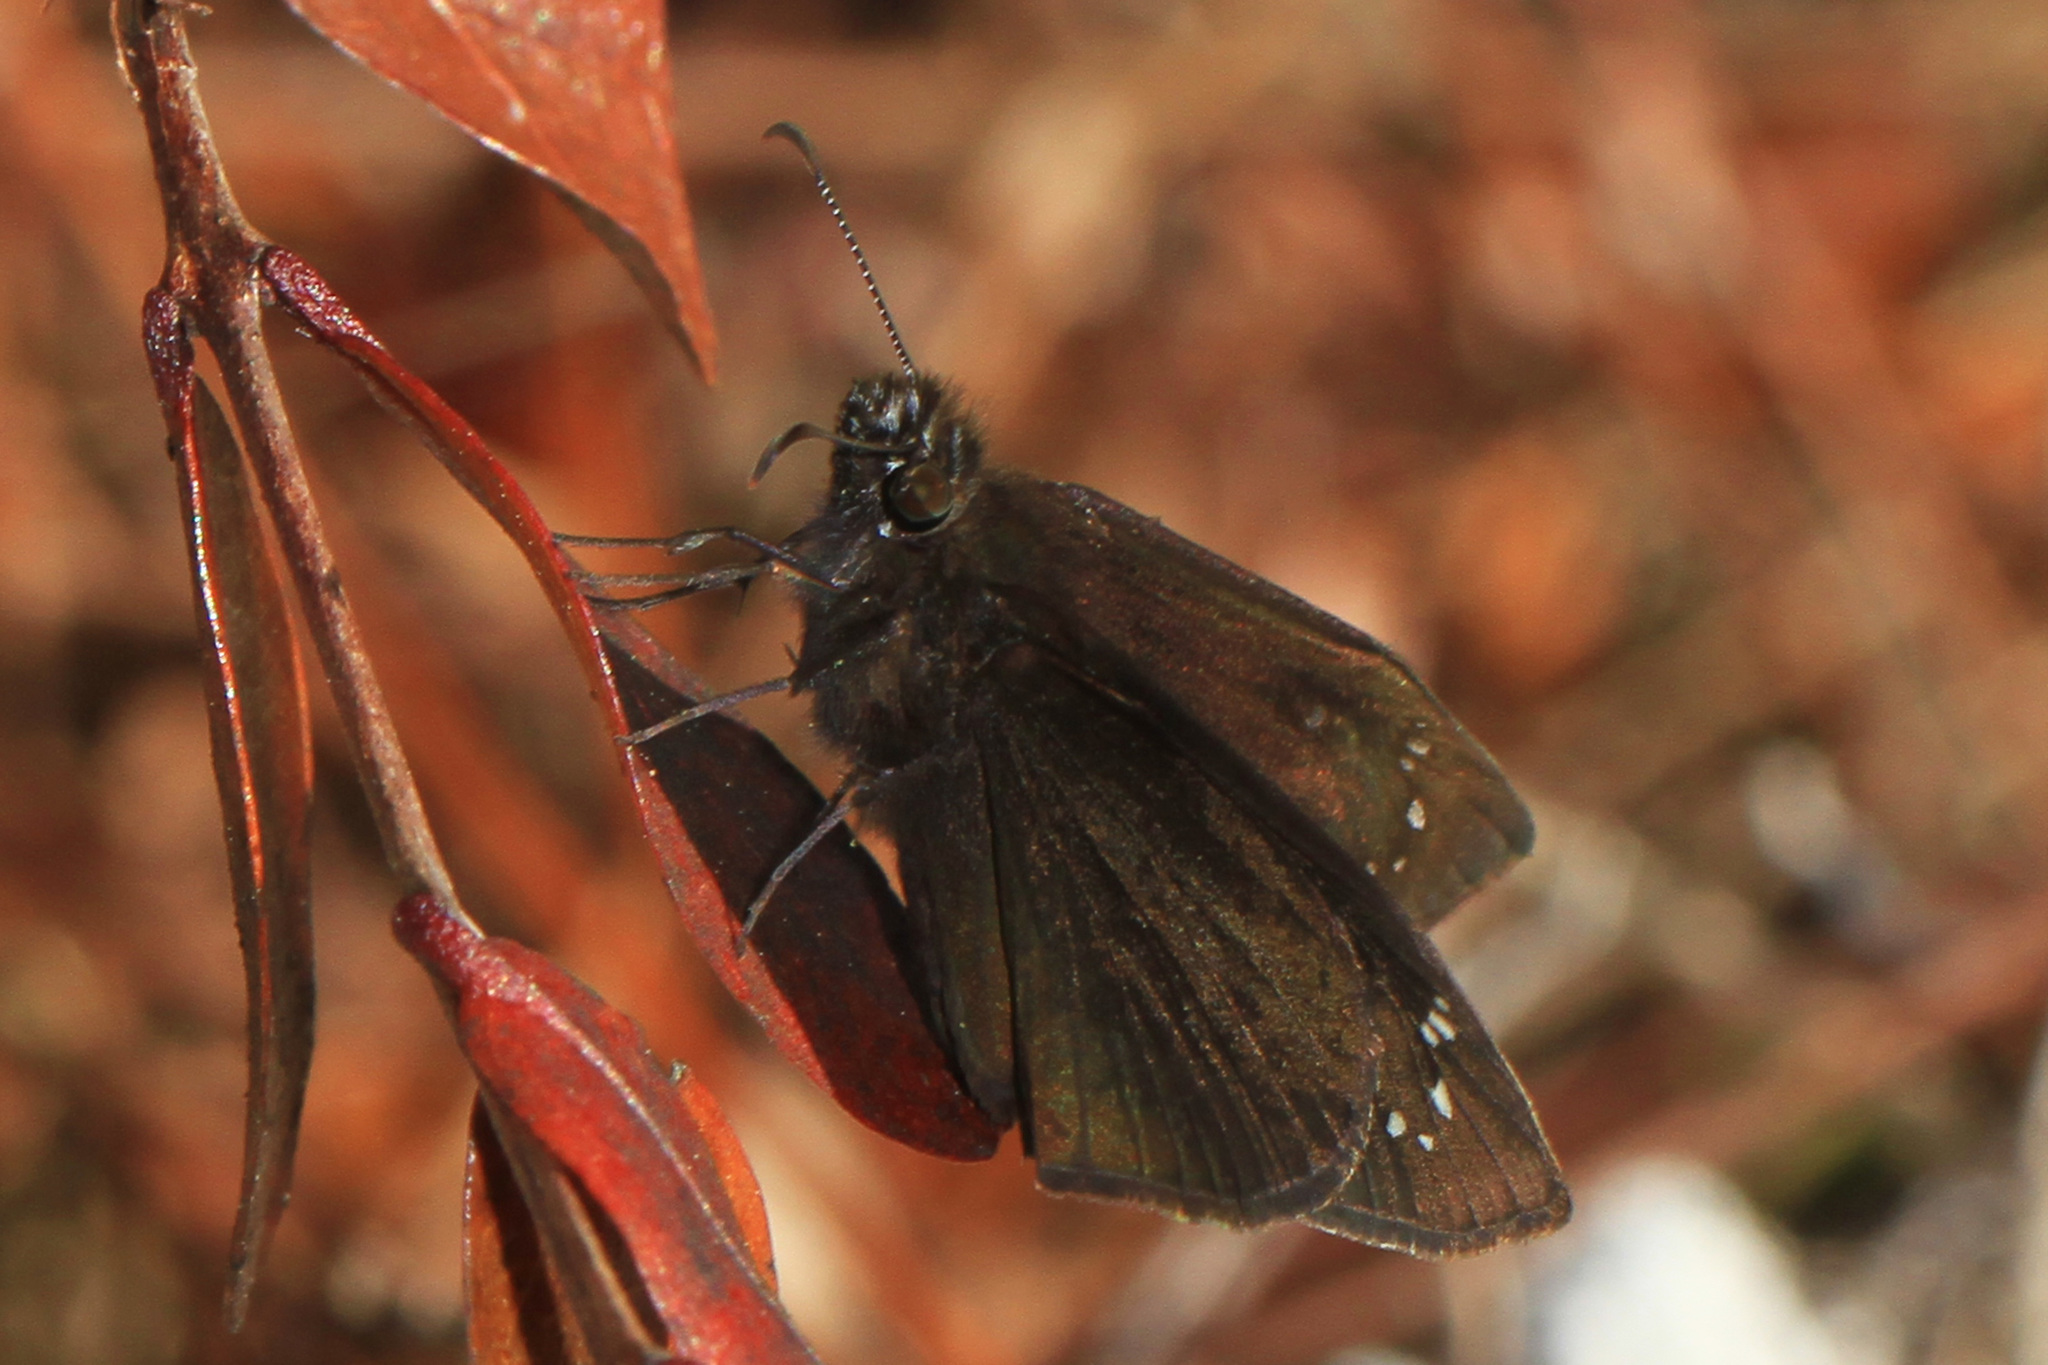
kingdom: Animalia
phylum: Arthropoda
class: Insecta
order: Lepidoptera
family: Hesperiidae
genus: Ephyriades
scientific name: Ephyriades brunnea
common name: Florida duskywing
